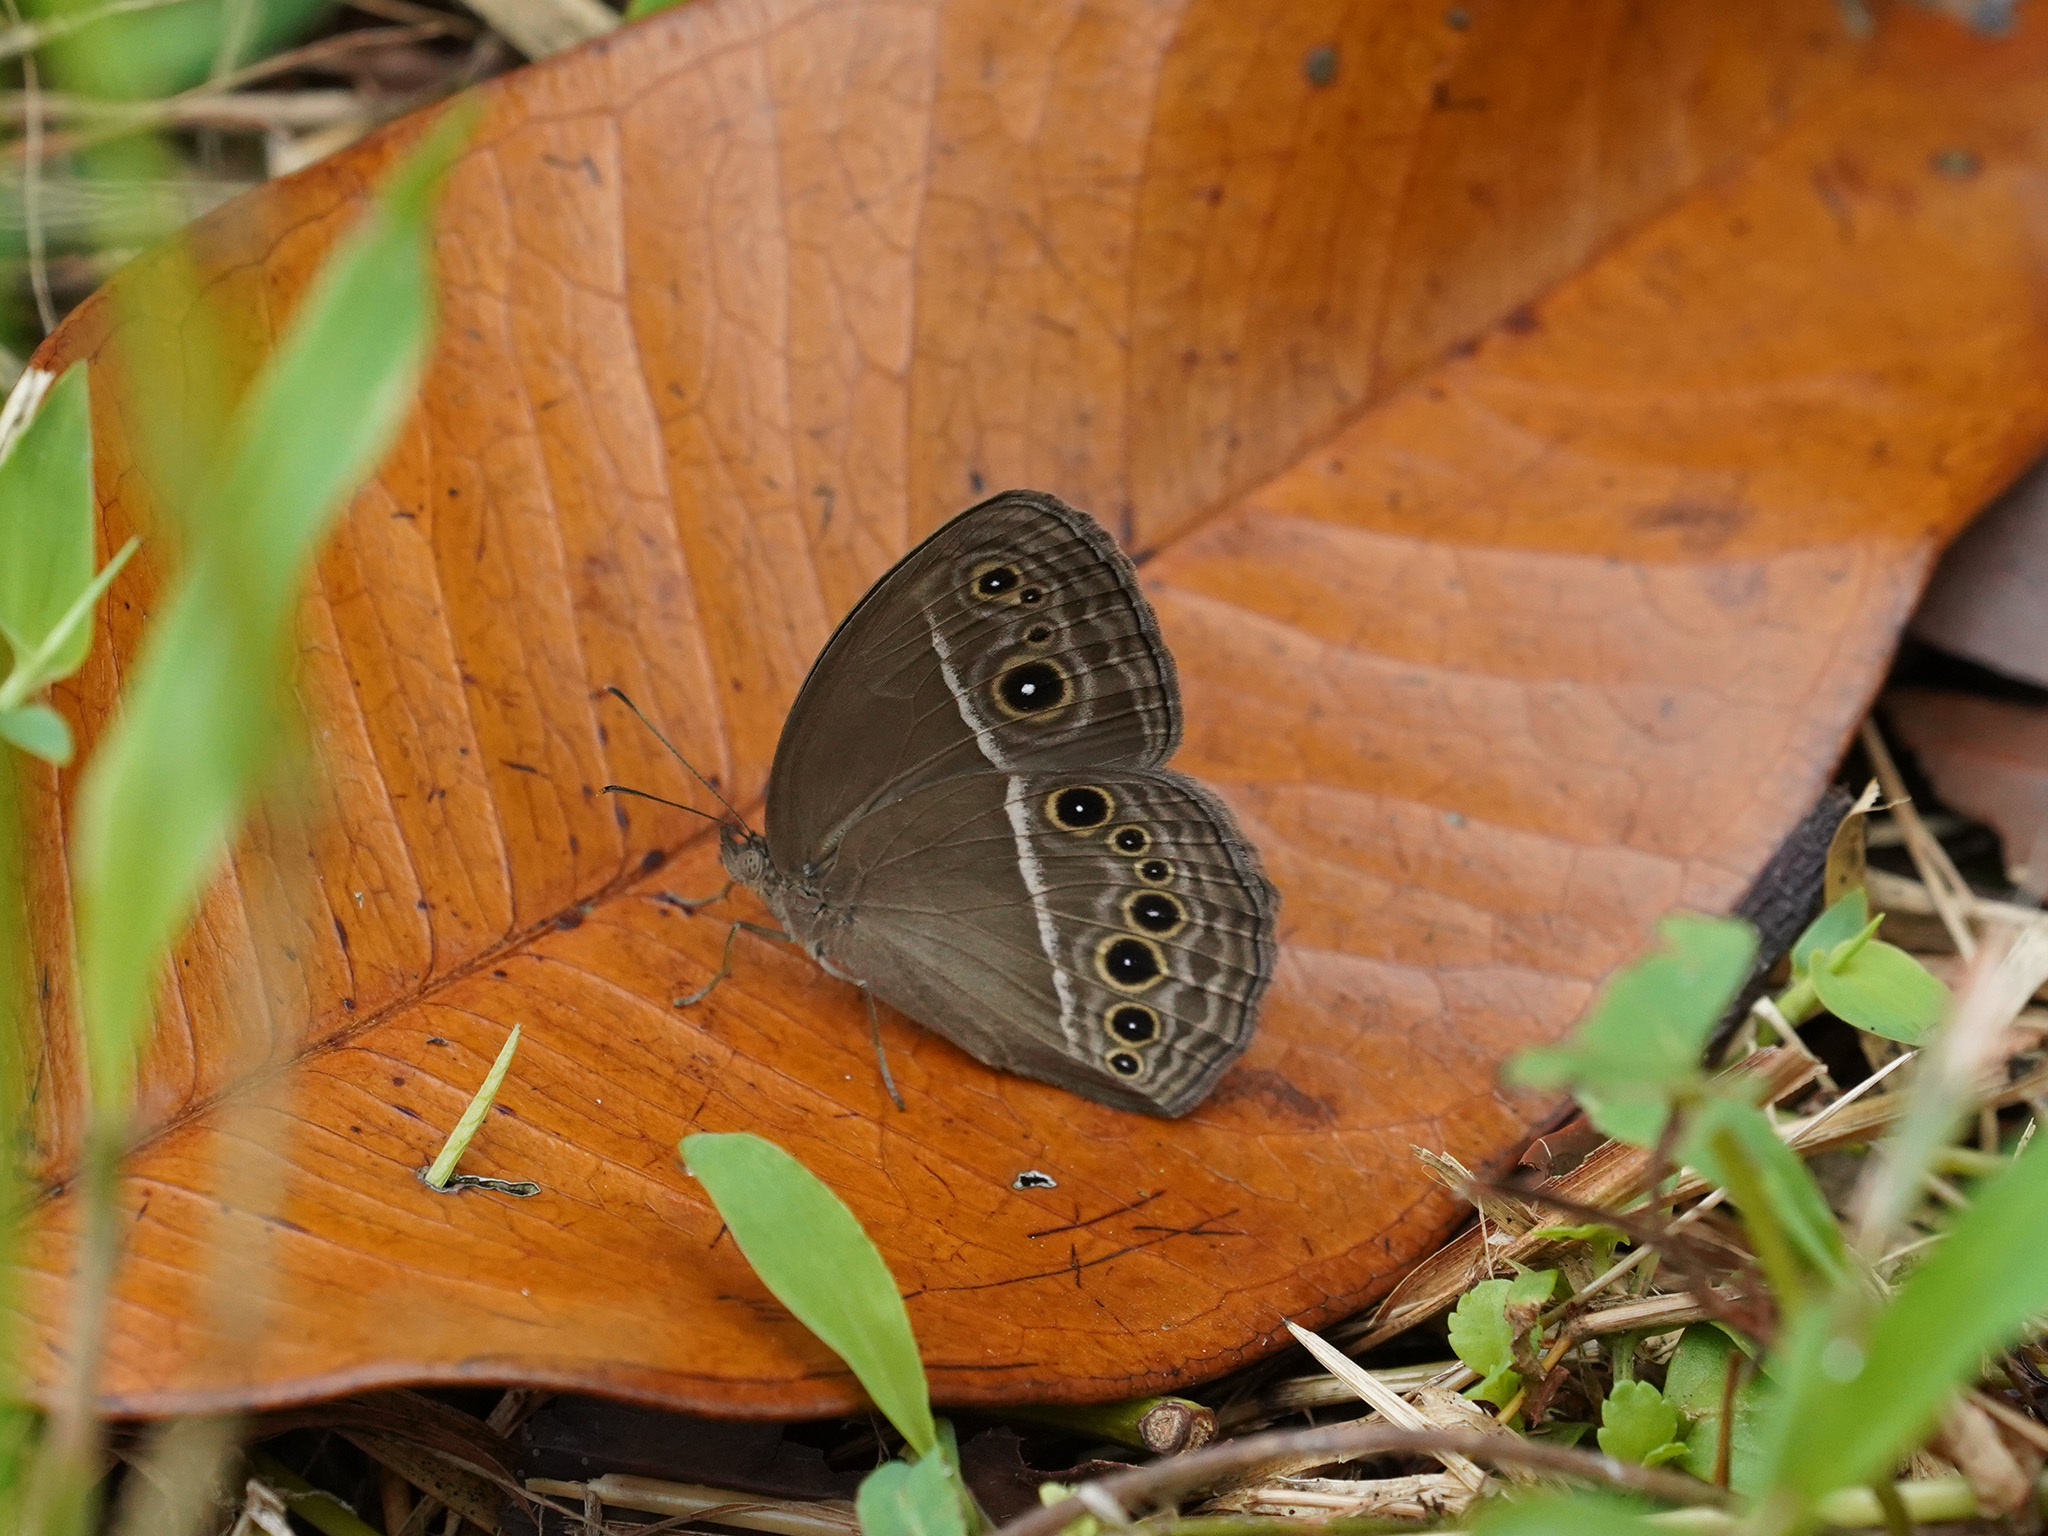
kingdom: Animalia
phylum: Arthropoda
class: Insecta
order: Lepidoptera
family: Nymphalidae
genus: Mycalesis
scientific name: Mycalesis perseus
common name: Dingy bushbrown
